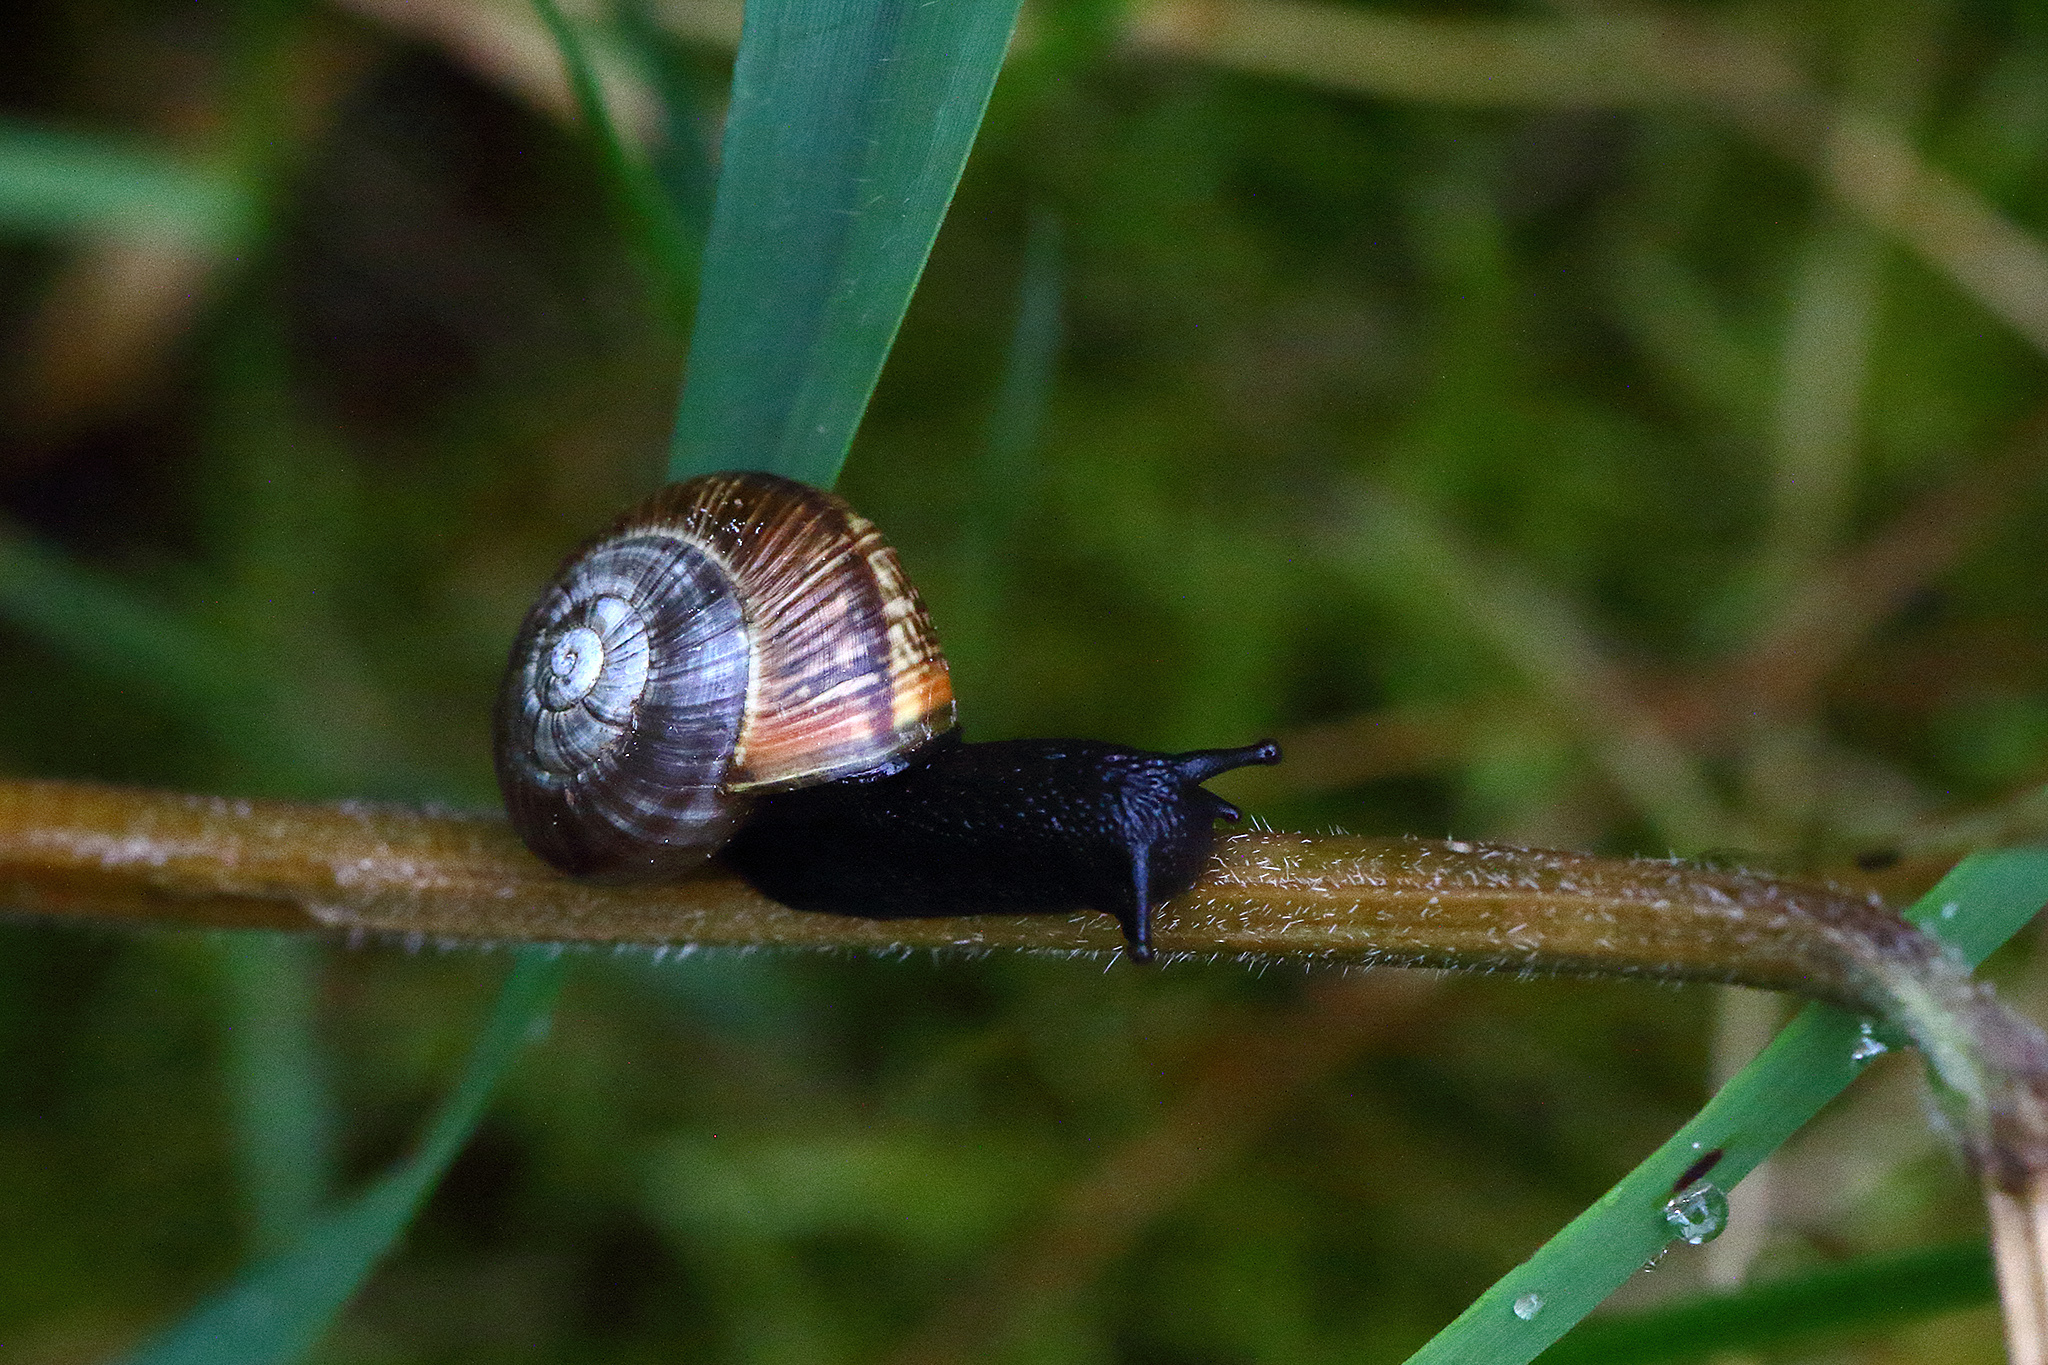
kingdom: Animalia
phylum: Mollusca
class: Gastropoda
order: Stylommatophora
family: Helicidae
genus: Arianta
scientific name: Arianta arbustorum
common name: Copse snail
